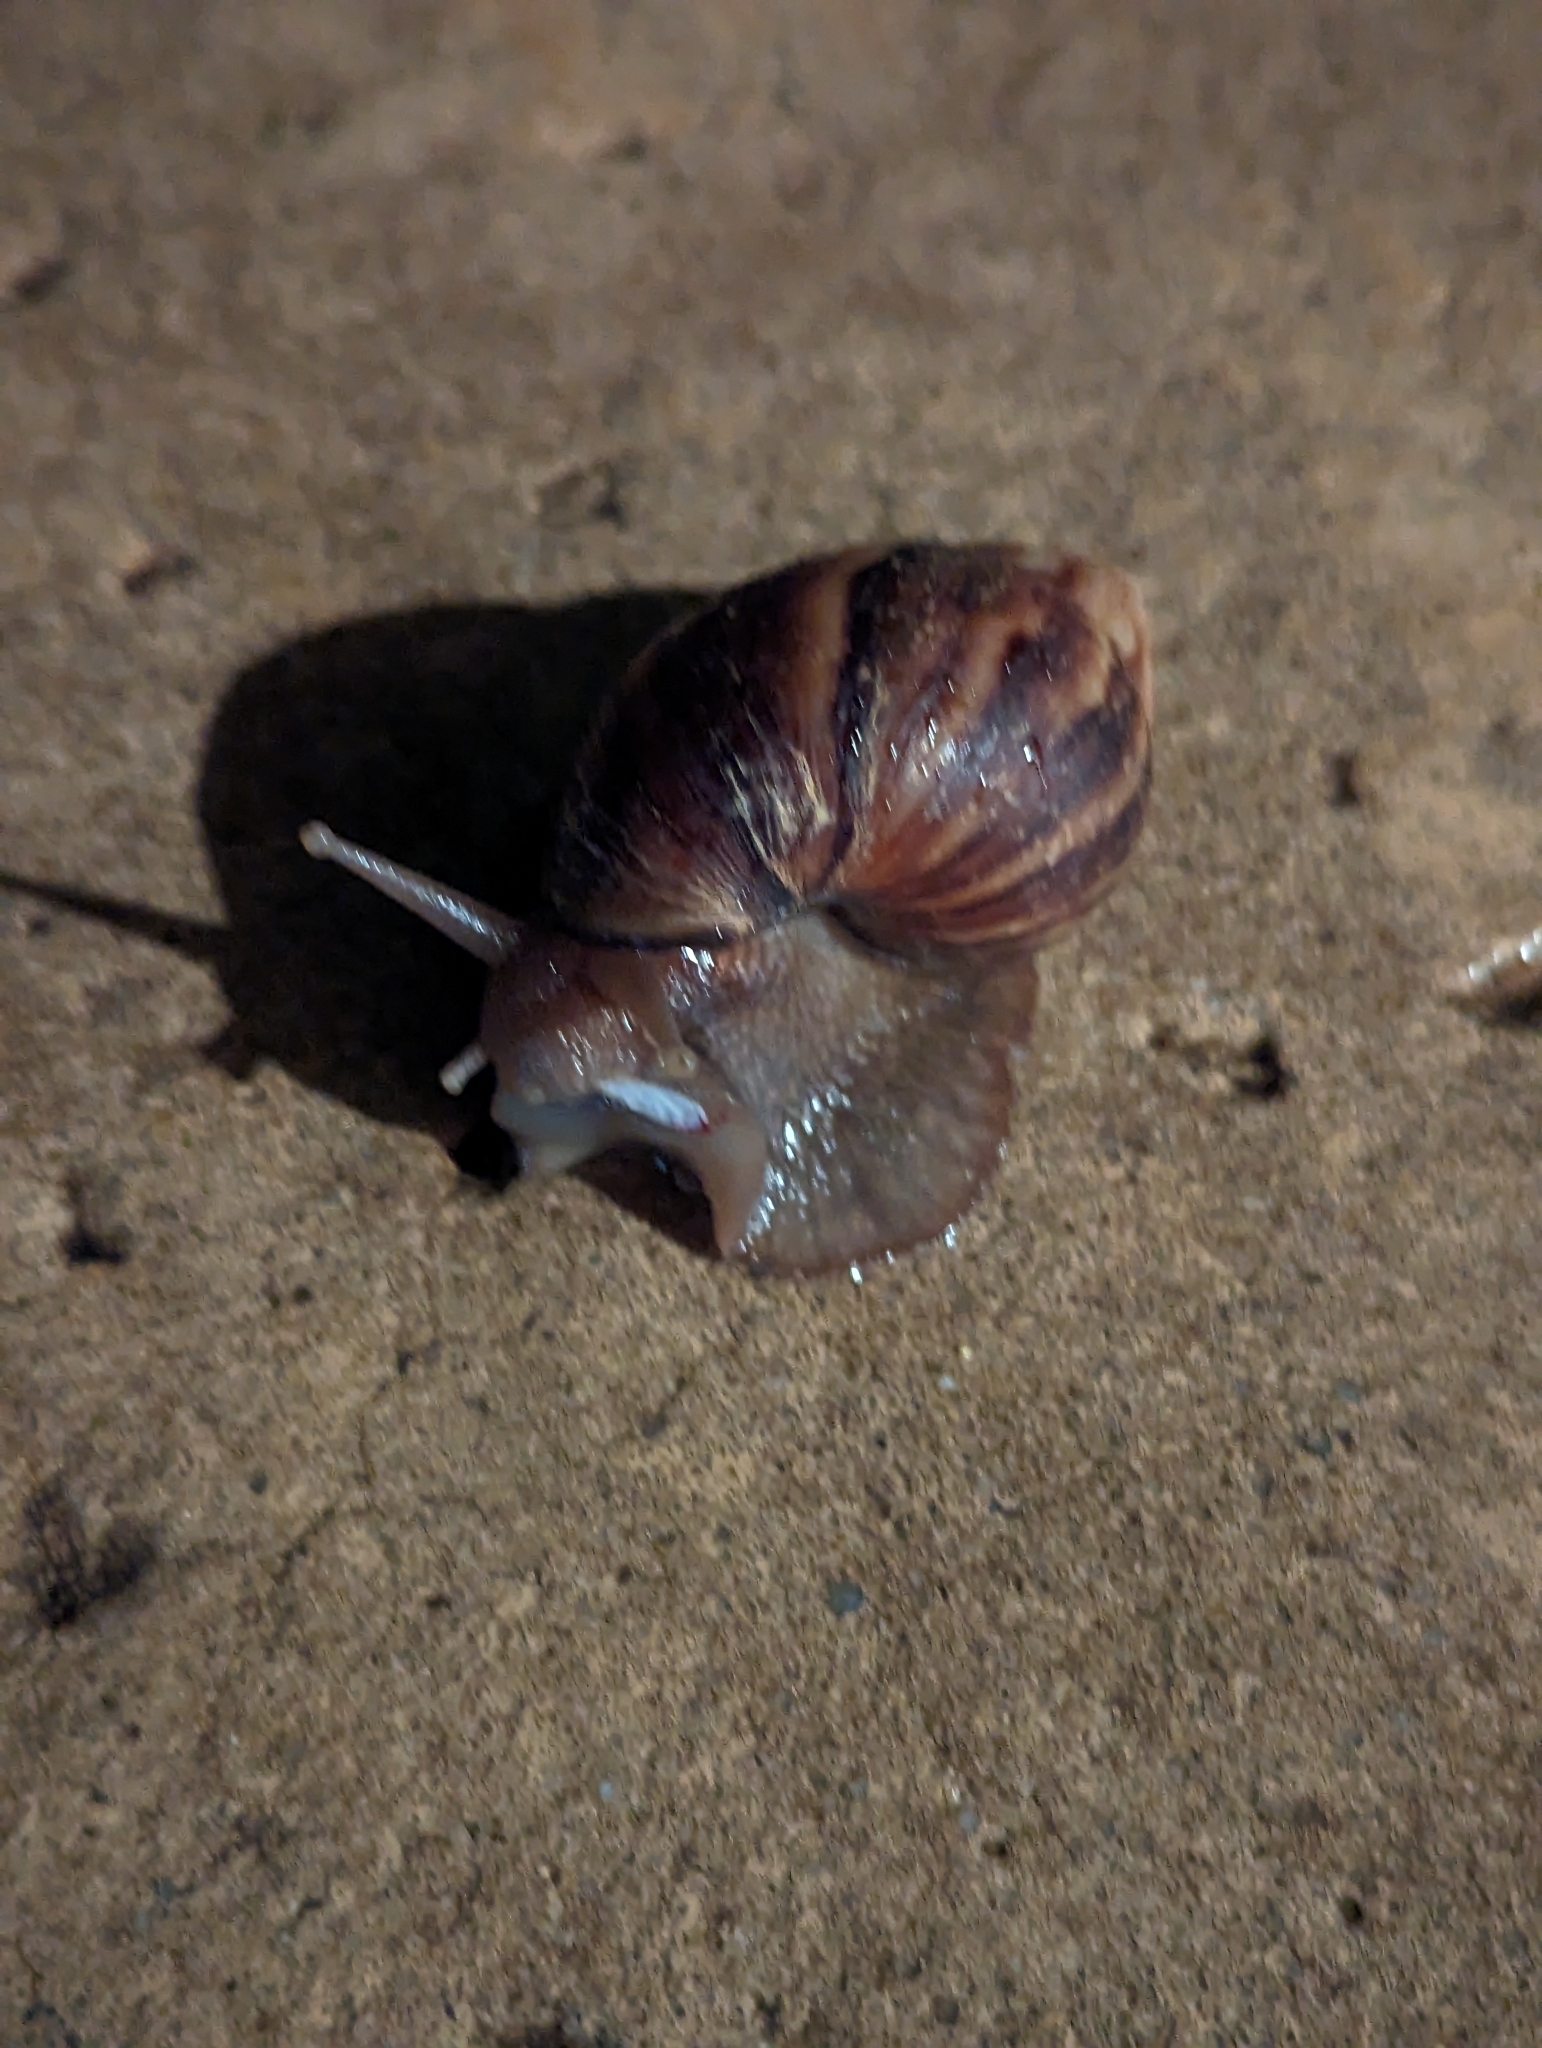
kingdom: Animalia
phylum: Mollusca
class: Gastropoda
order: Stylommatophora
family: Achatinidae
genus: Lissachatina
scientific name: Lissachatina fulica
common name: Giant african snail
